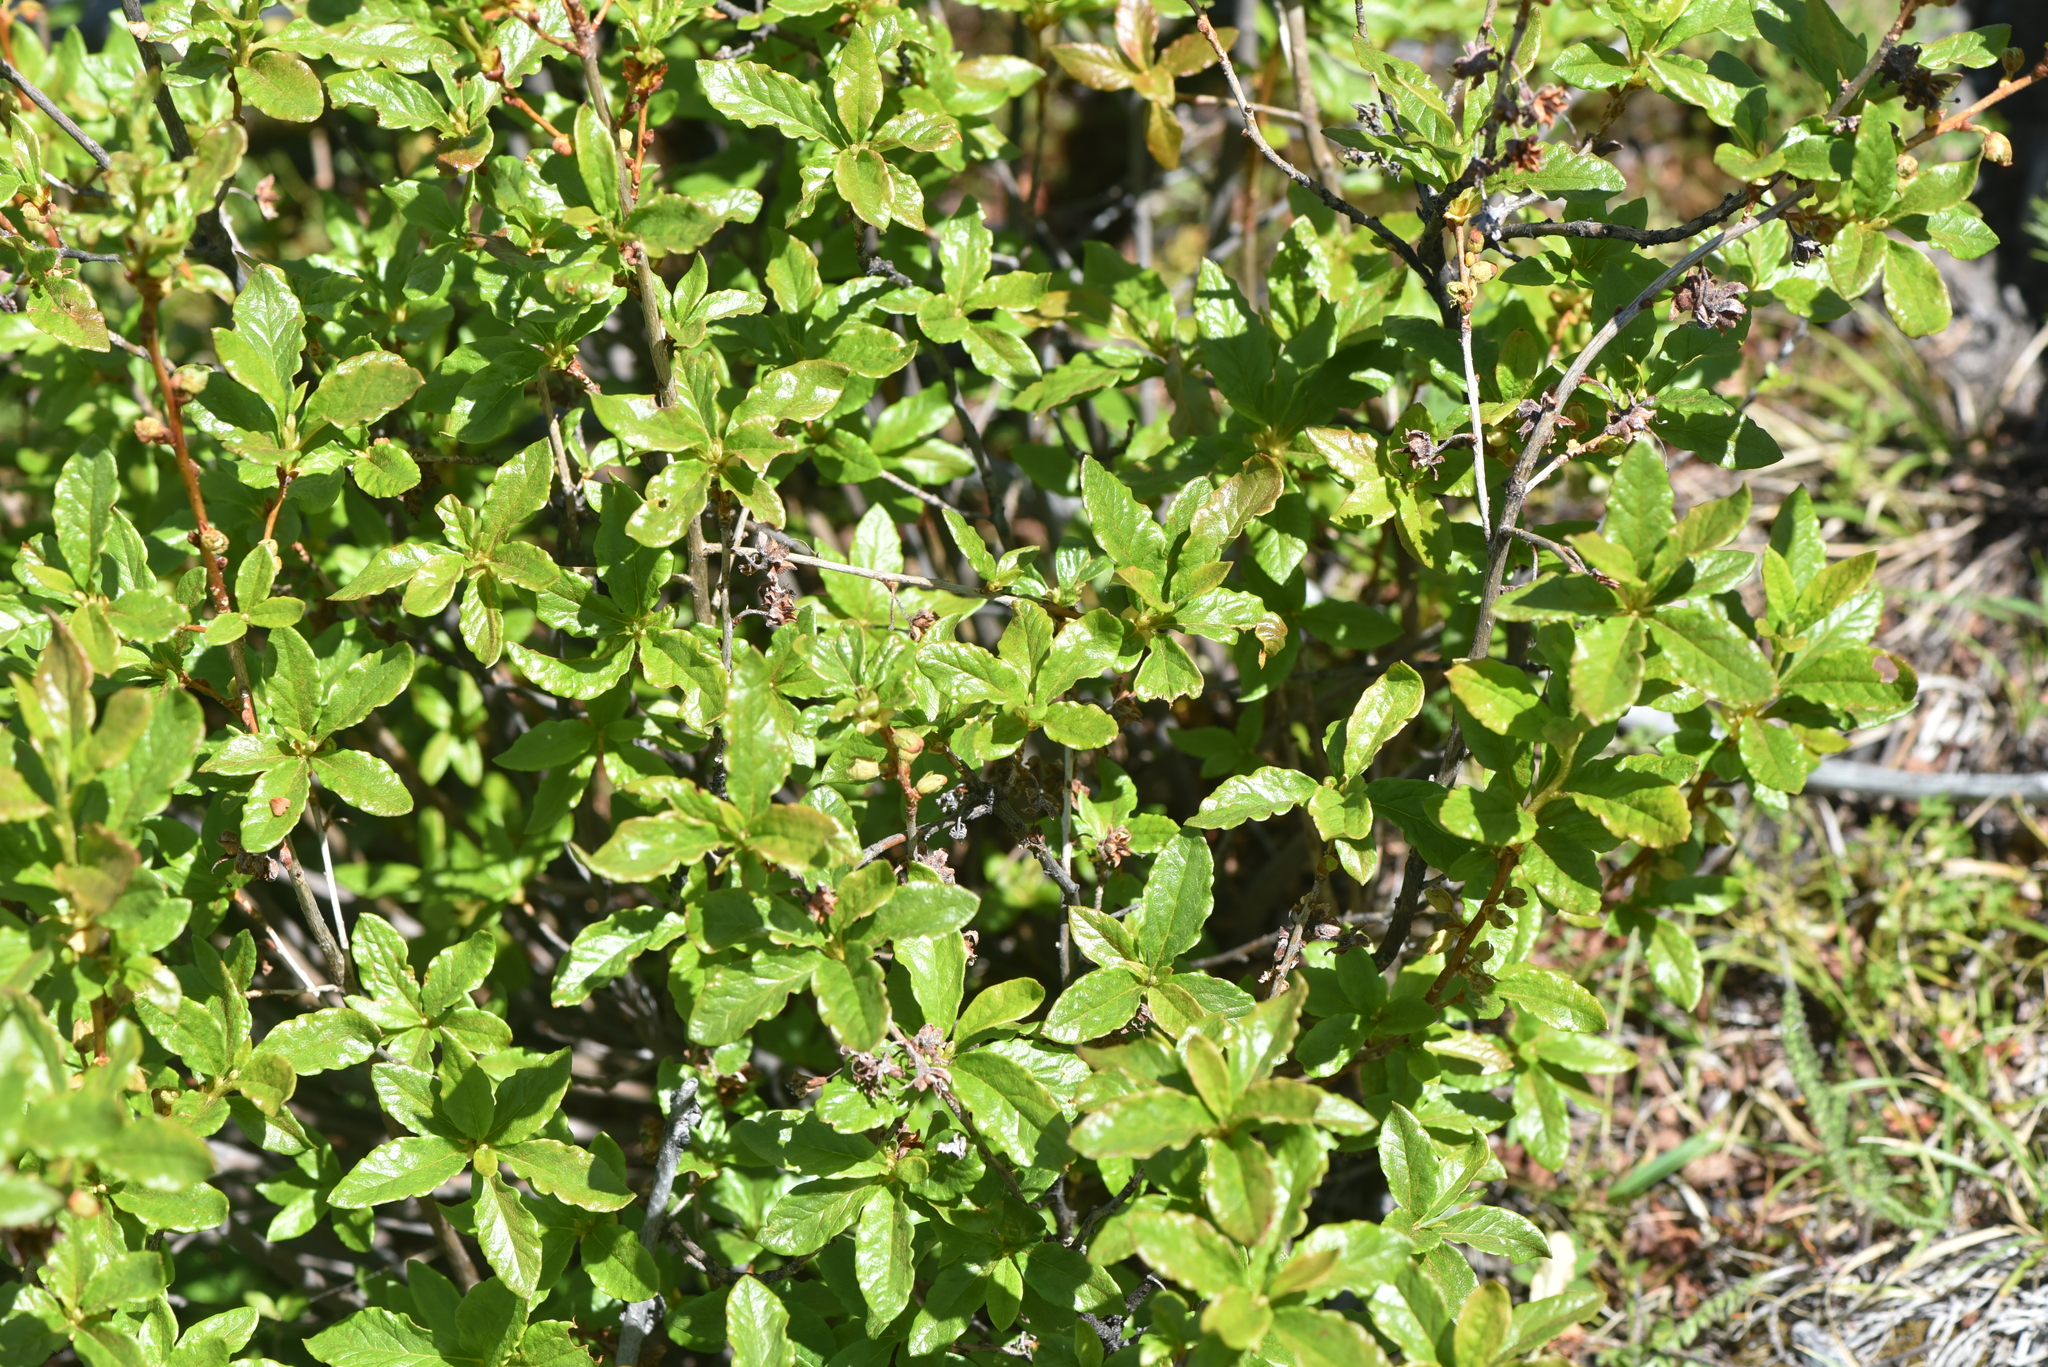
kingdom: Plantae
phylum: Tracheophyta
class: Magnoliopsida
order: Ericales
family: Ericaceae
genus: Rhododendron
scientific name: Rhododendron albiflorum
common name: White rhododendron
